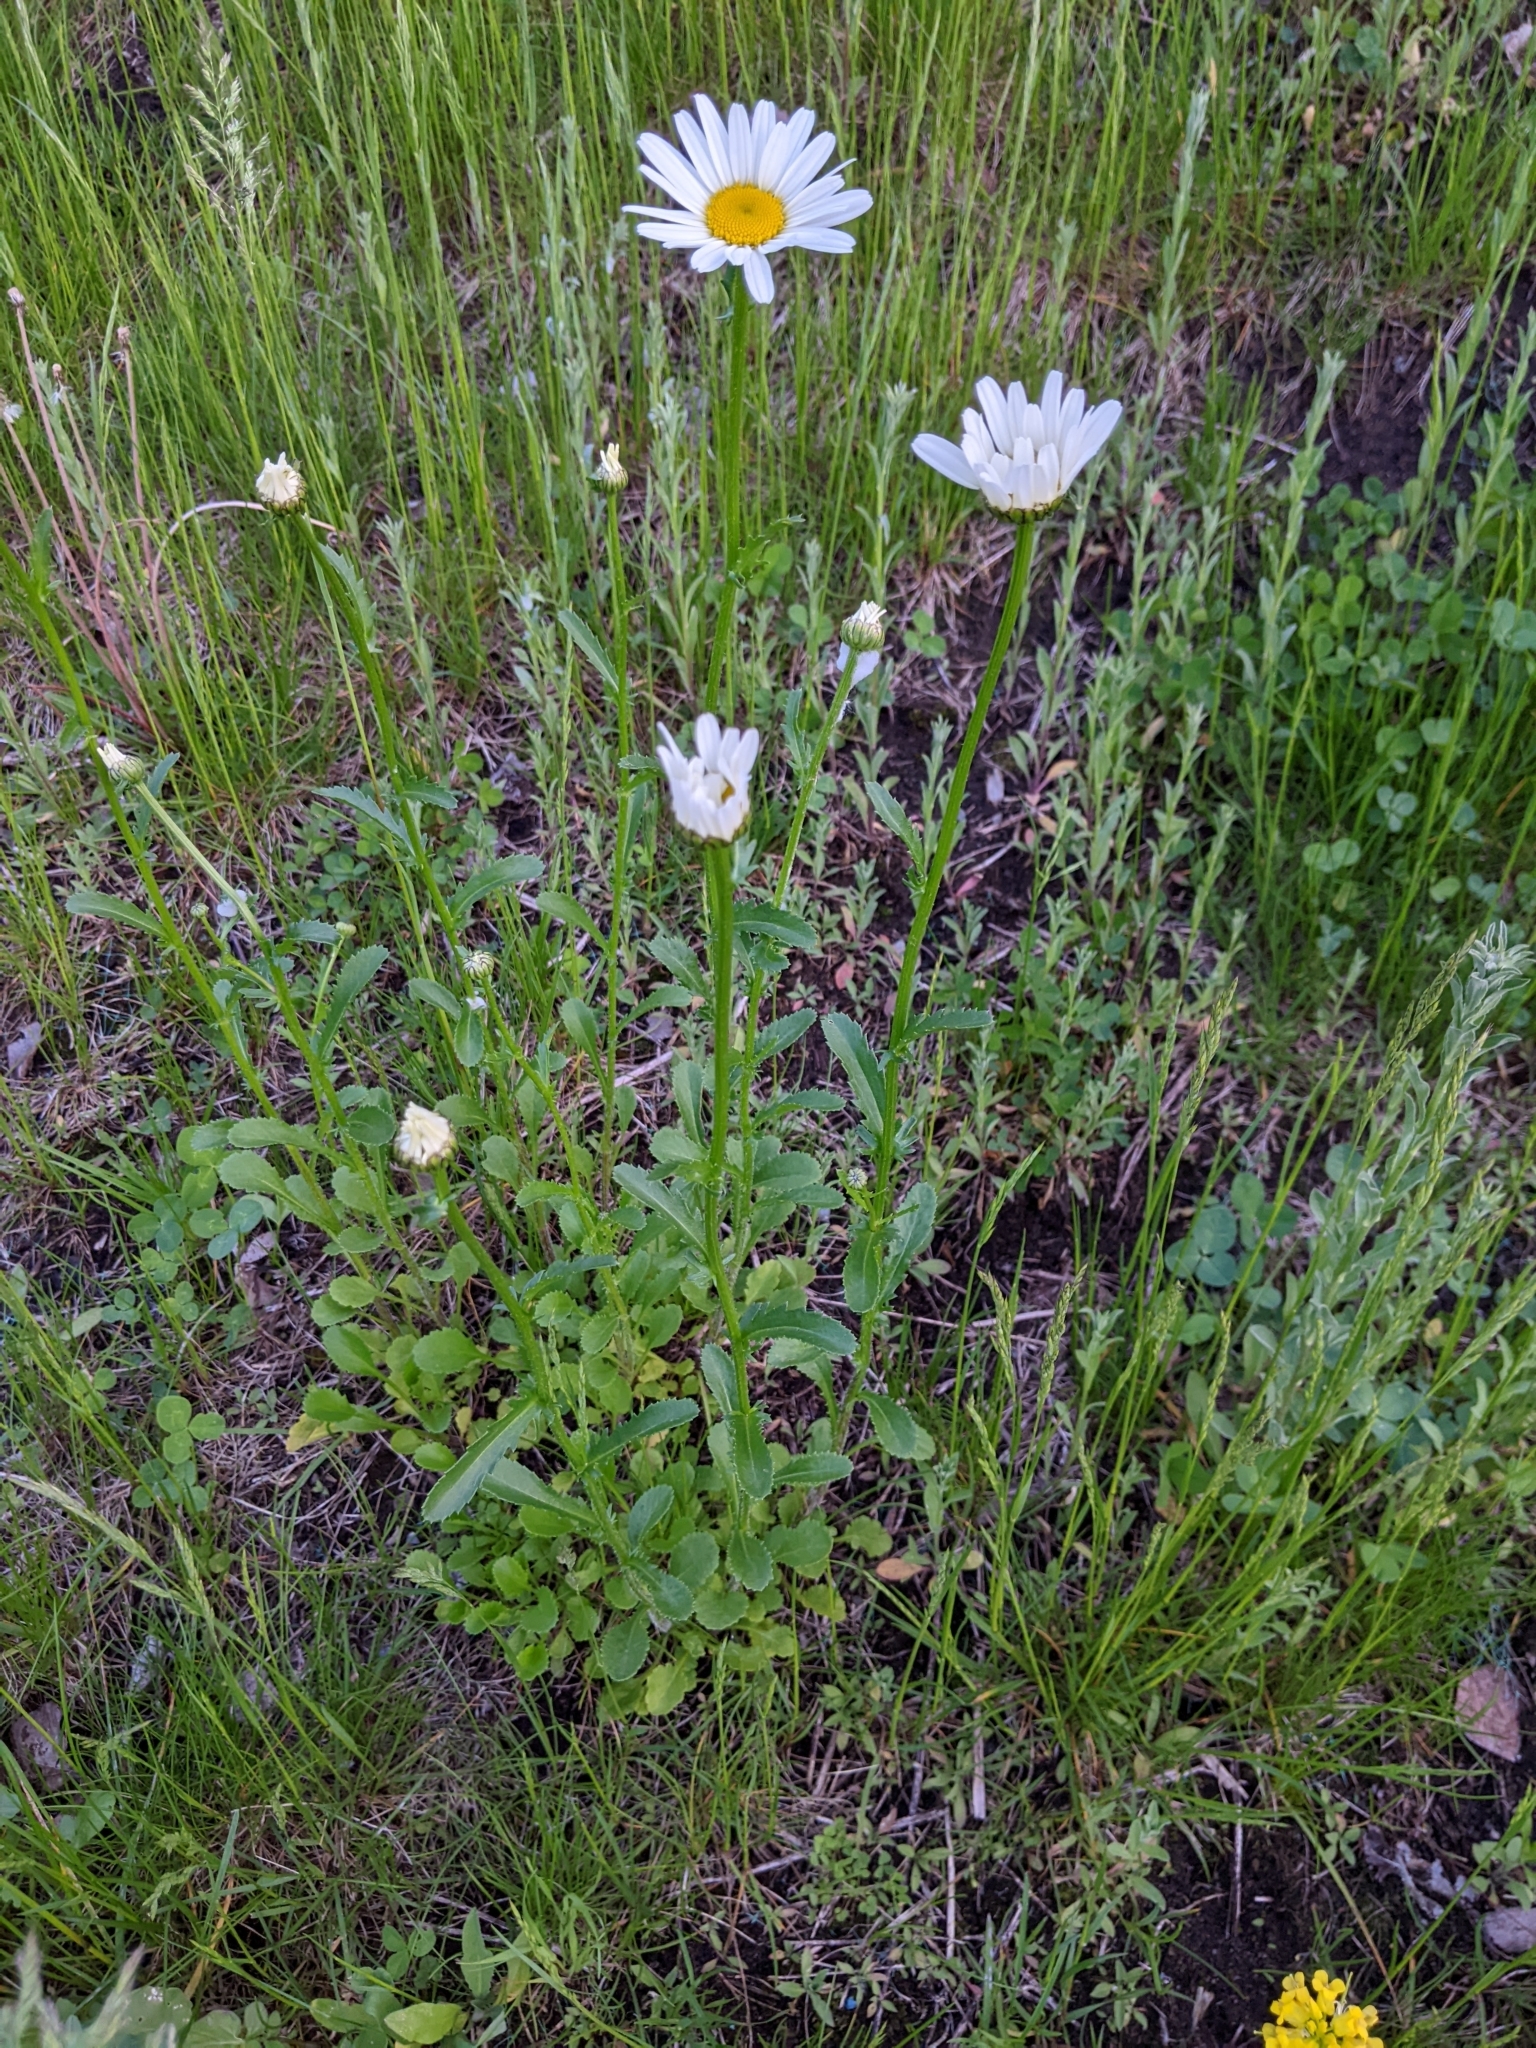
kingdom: Plantae
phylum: Tracheophyta
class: Magnoliopsida
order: Asterales
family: Asteraceae
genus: Leucanthemum
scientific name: Leucanthemum vulgare
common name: Oxeye daisy
